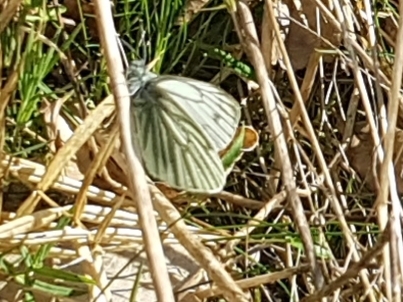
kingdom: Animalia
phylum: Arthropoda
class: Insecta
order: Lepidoptera
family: Pieridae
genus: Pieris
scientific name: Pieris napi
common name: Green-veined white
